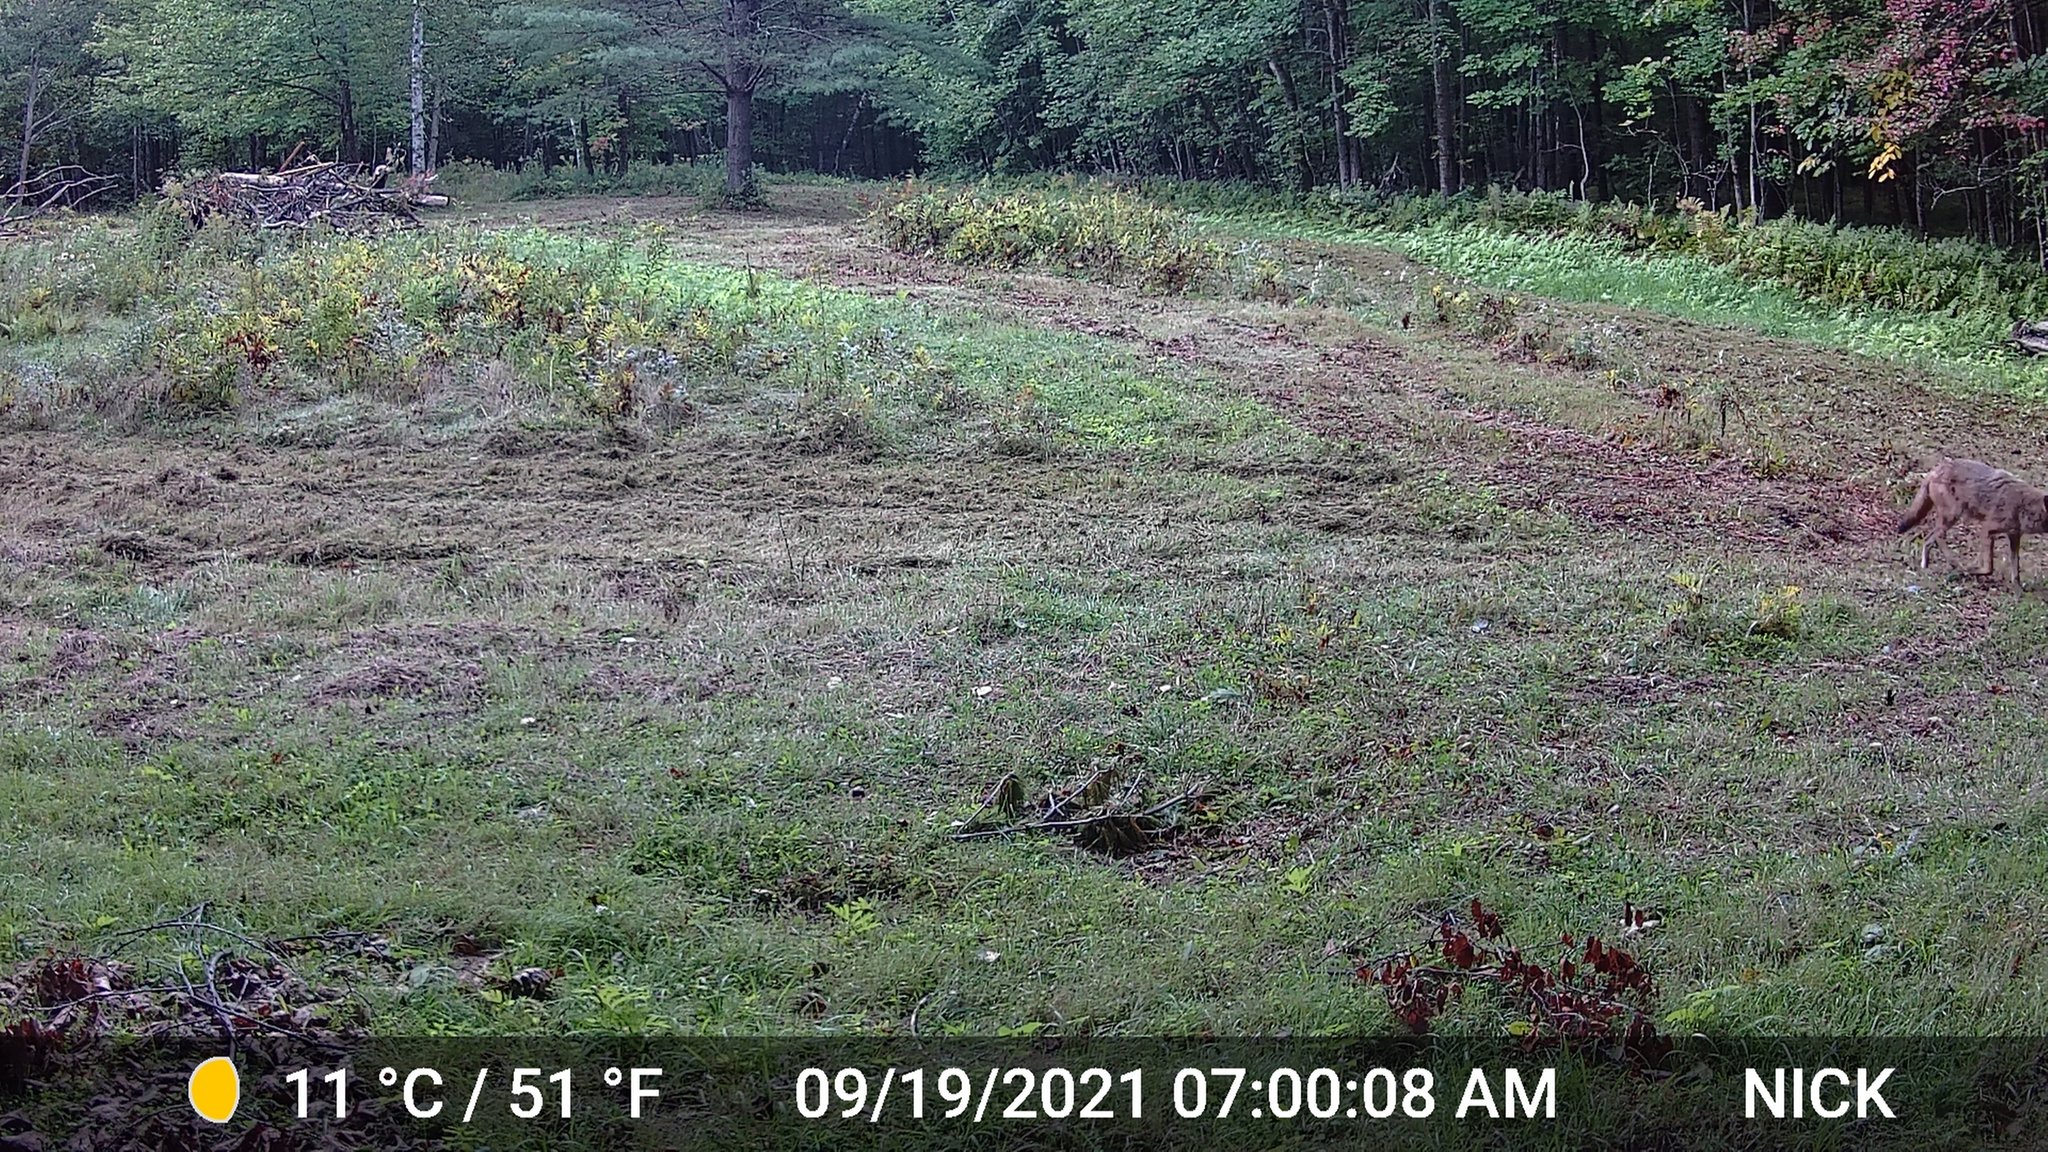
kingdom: Animalia
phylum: Chordata
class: Mammalia
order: Carnivora
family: Canidae
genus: Canis
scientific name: Canis latrans
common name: Coyote
